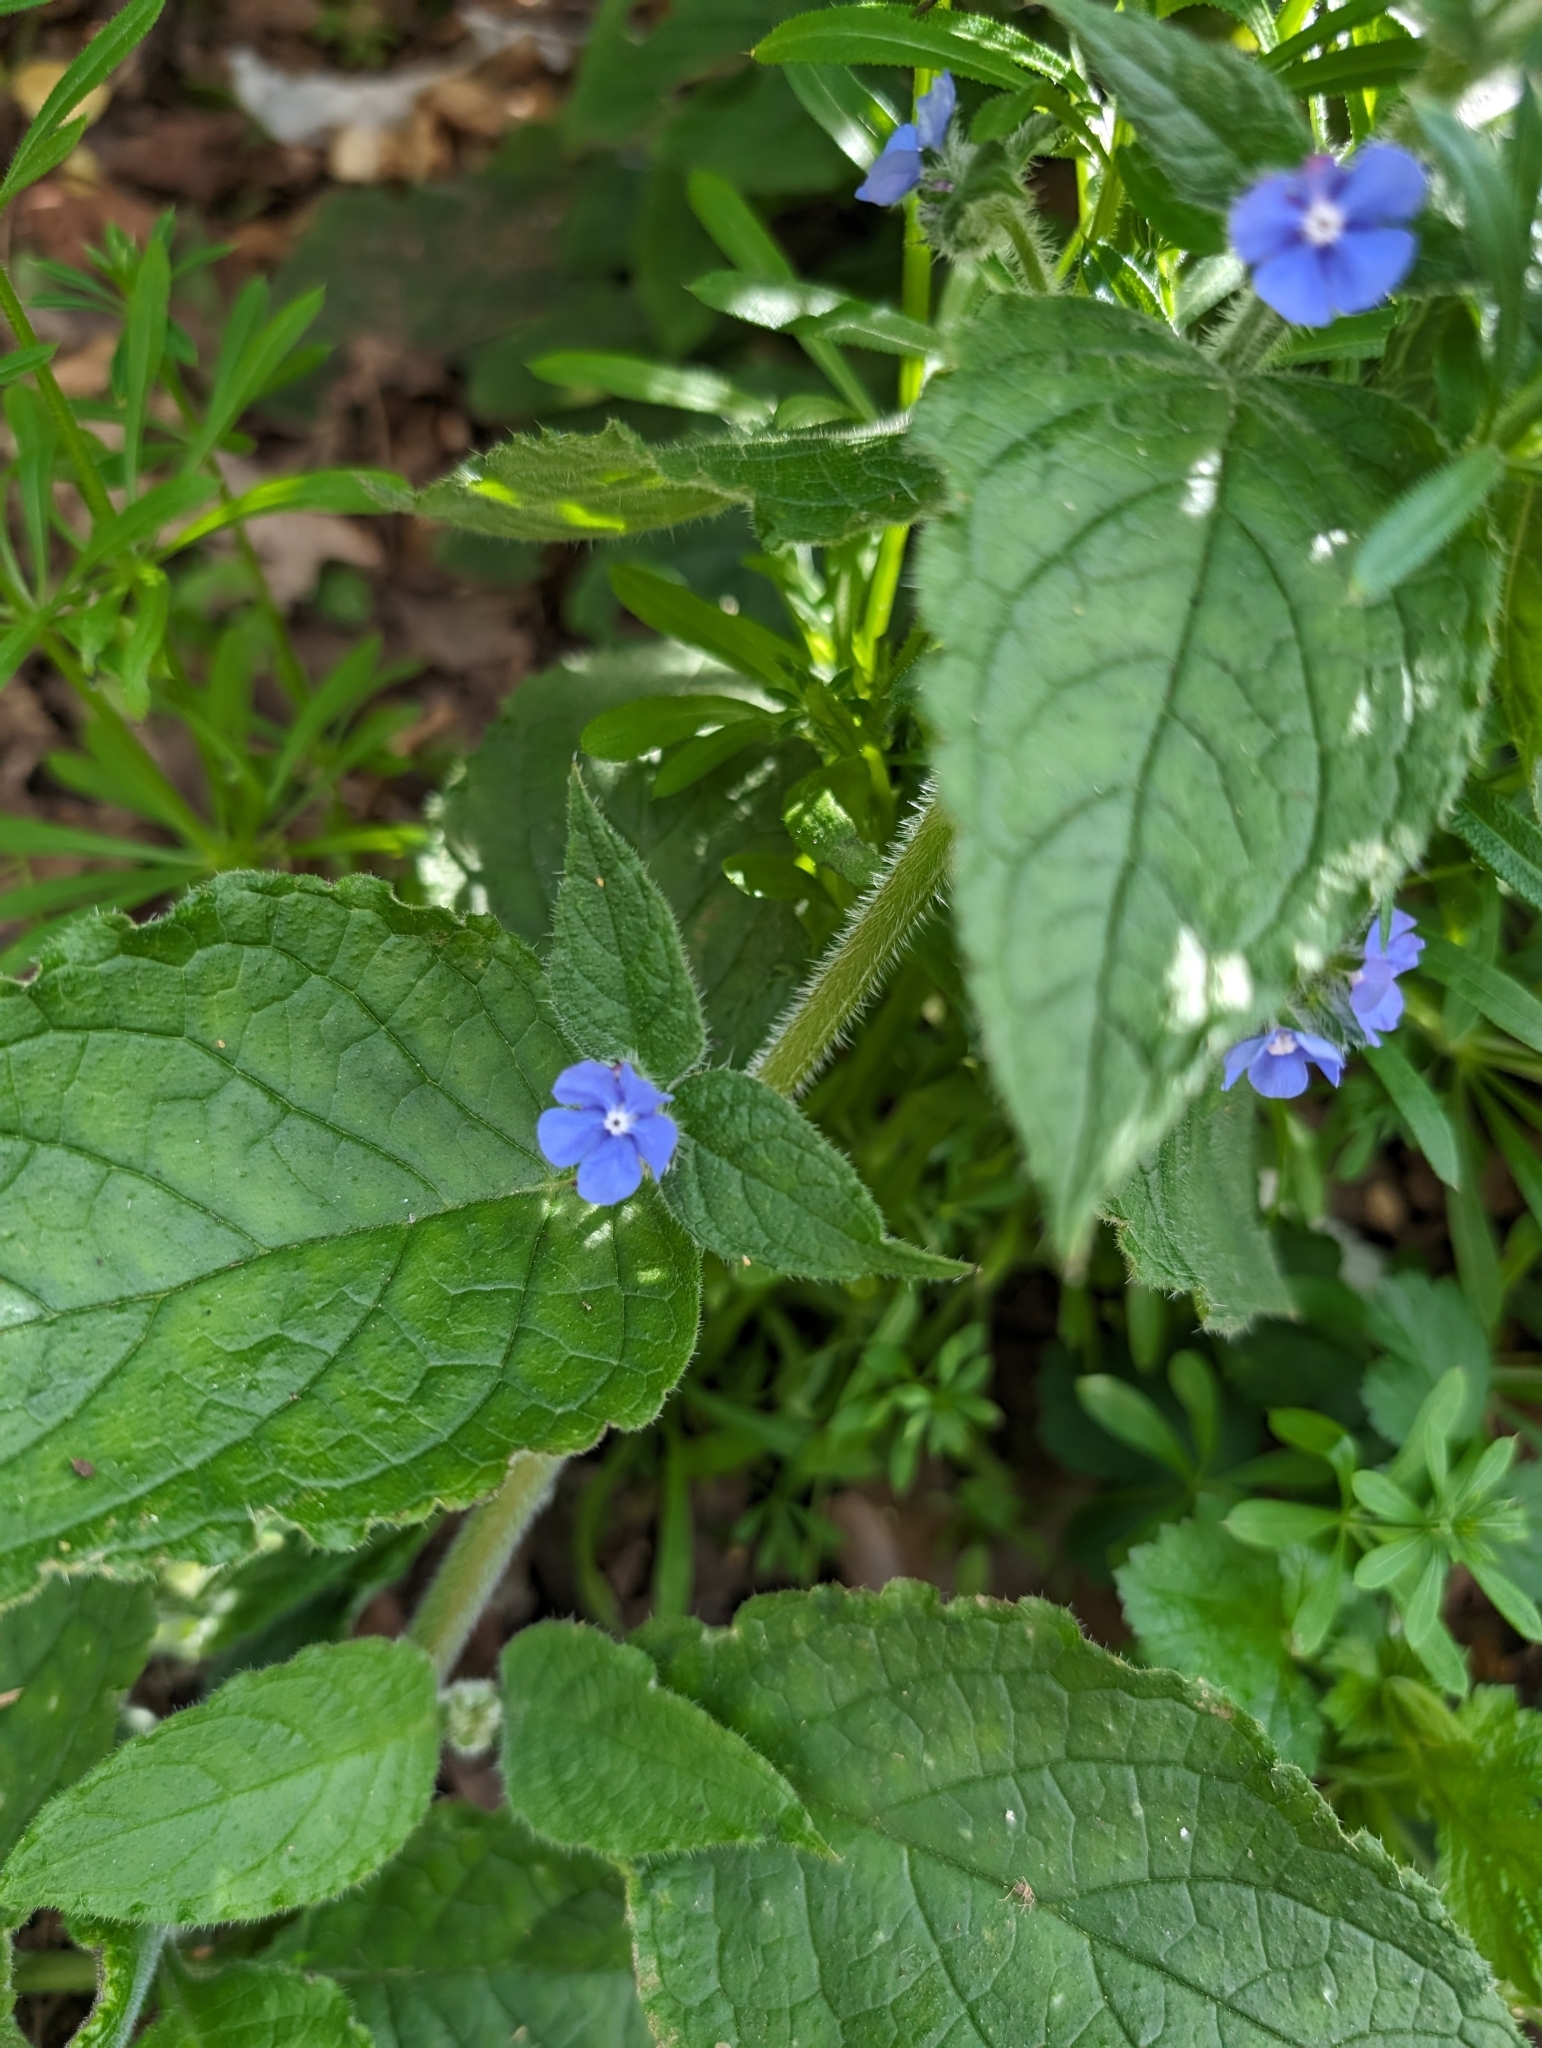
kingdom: Plantae
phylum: Tracheophyta
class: Magnoliopsida
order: Boraginales
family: Boraginaceae
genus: Pentaglottis
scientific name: Pentaglottis sempervirens
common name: Green alkanet
